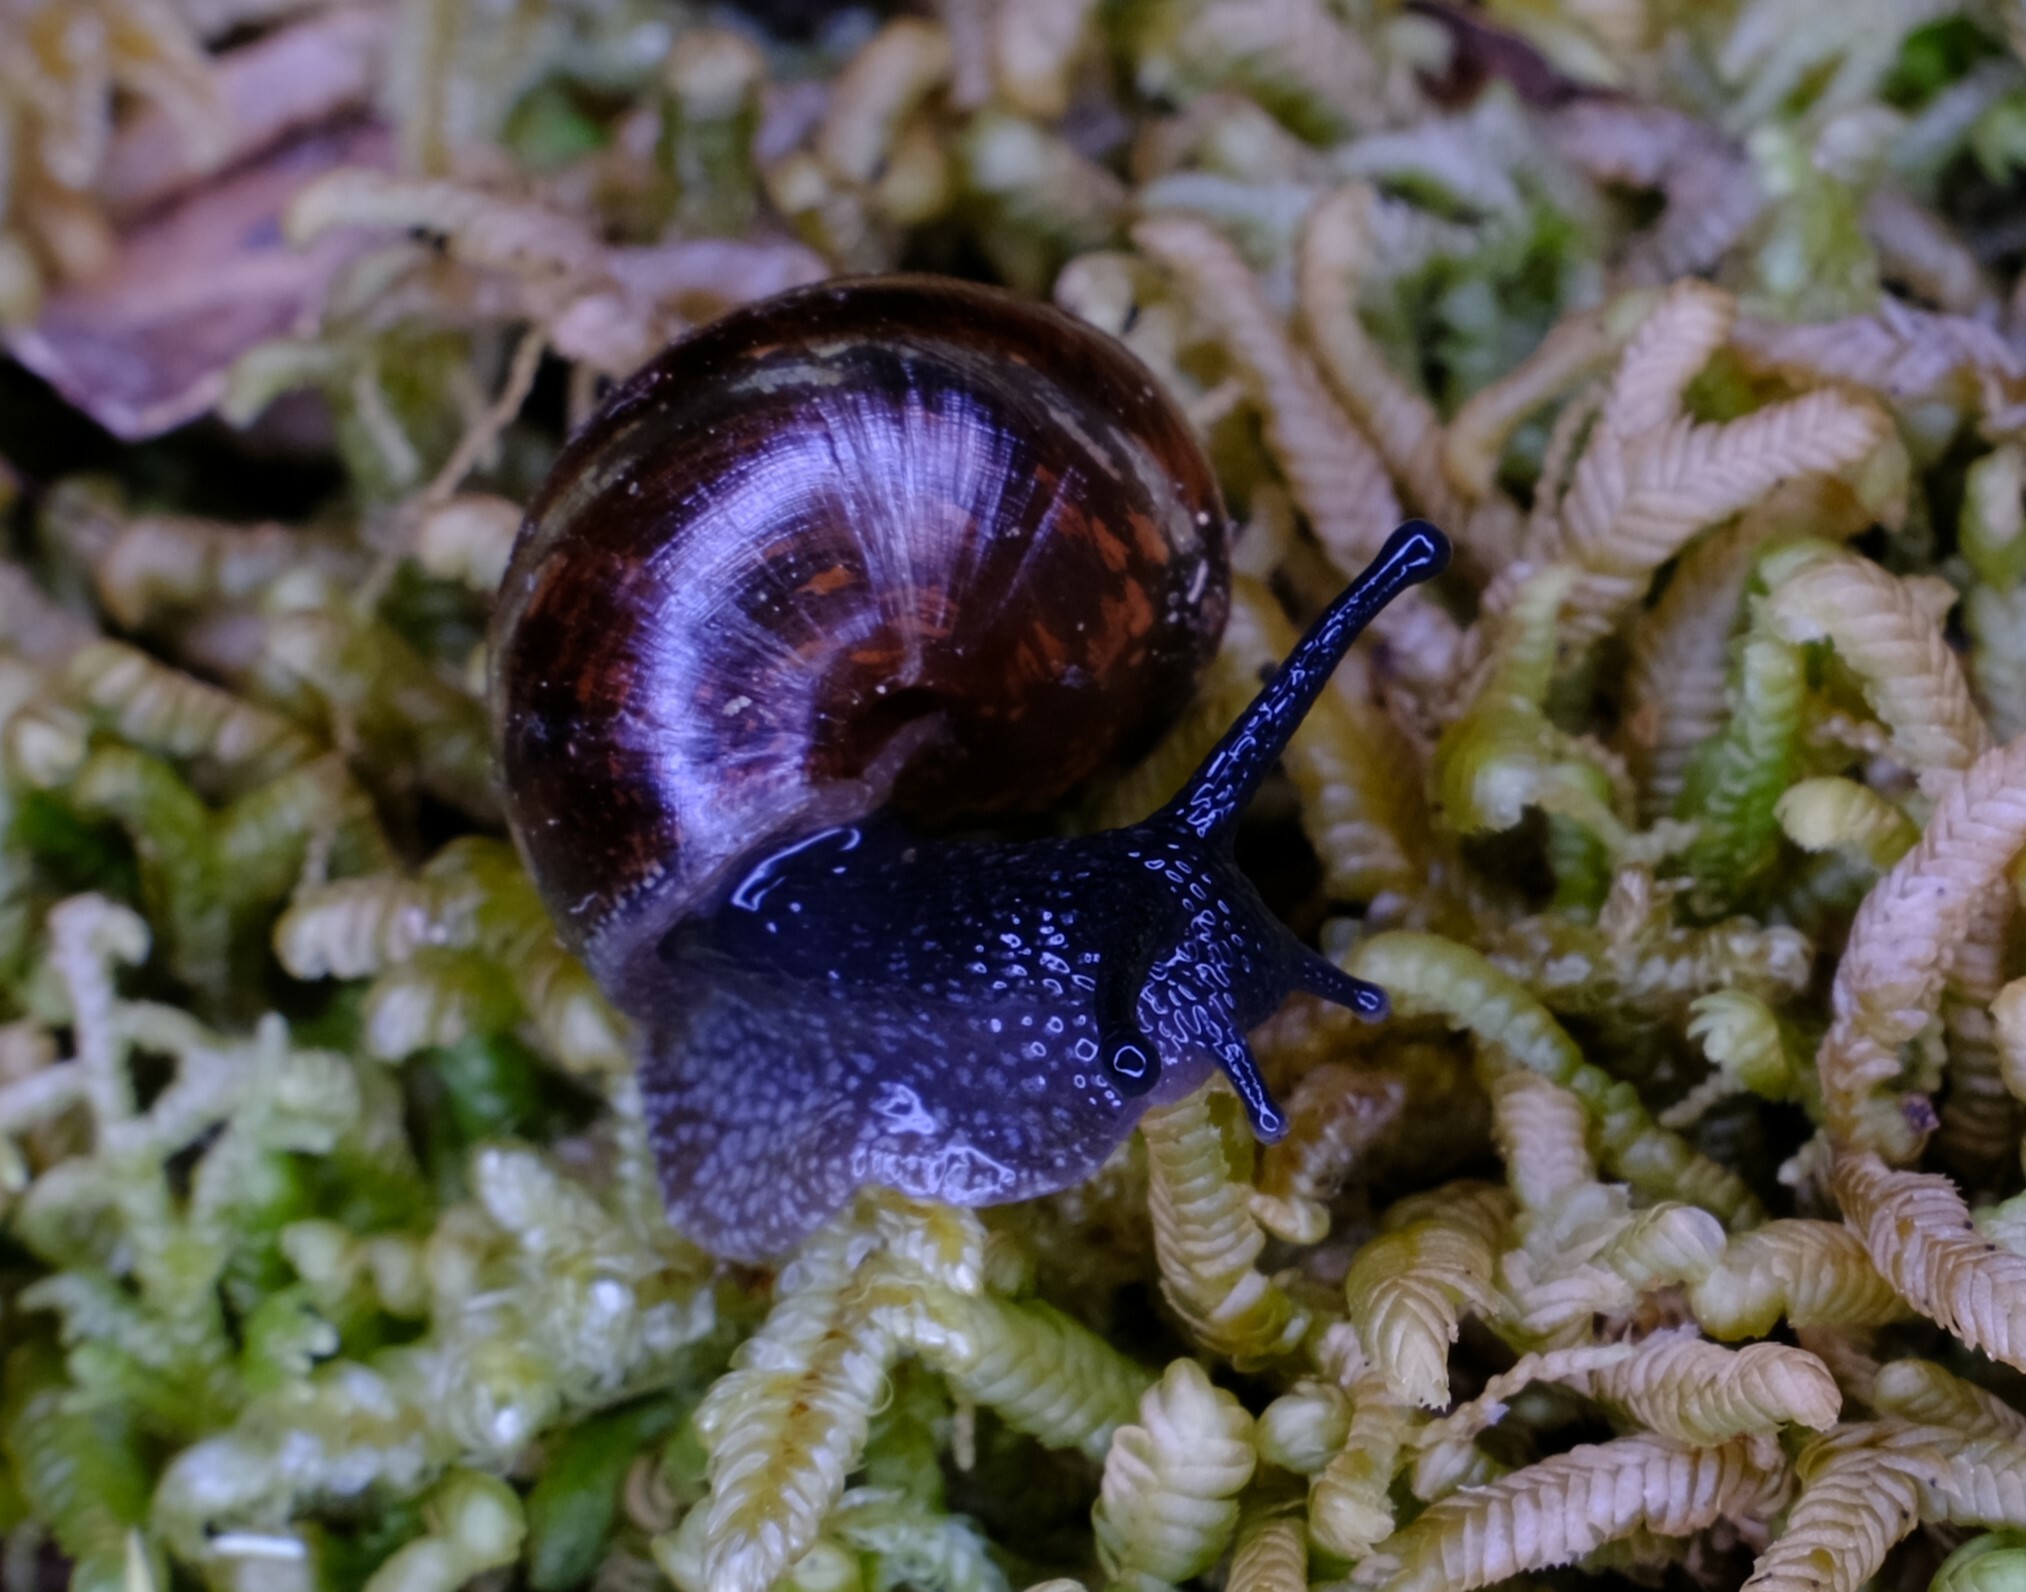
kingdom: Animalia
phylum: Mollusca
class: Gastropoda
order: Stylommatophora
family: Caryodidae
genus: Caryodes
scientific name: Caryodes dufresnii
